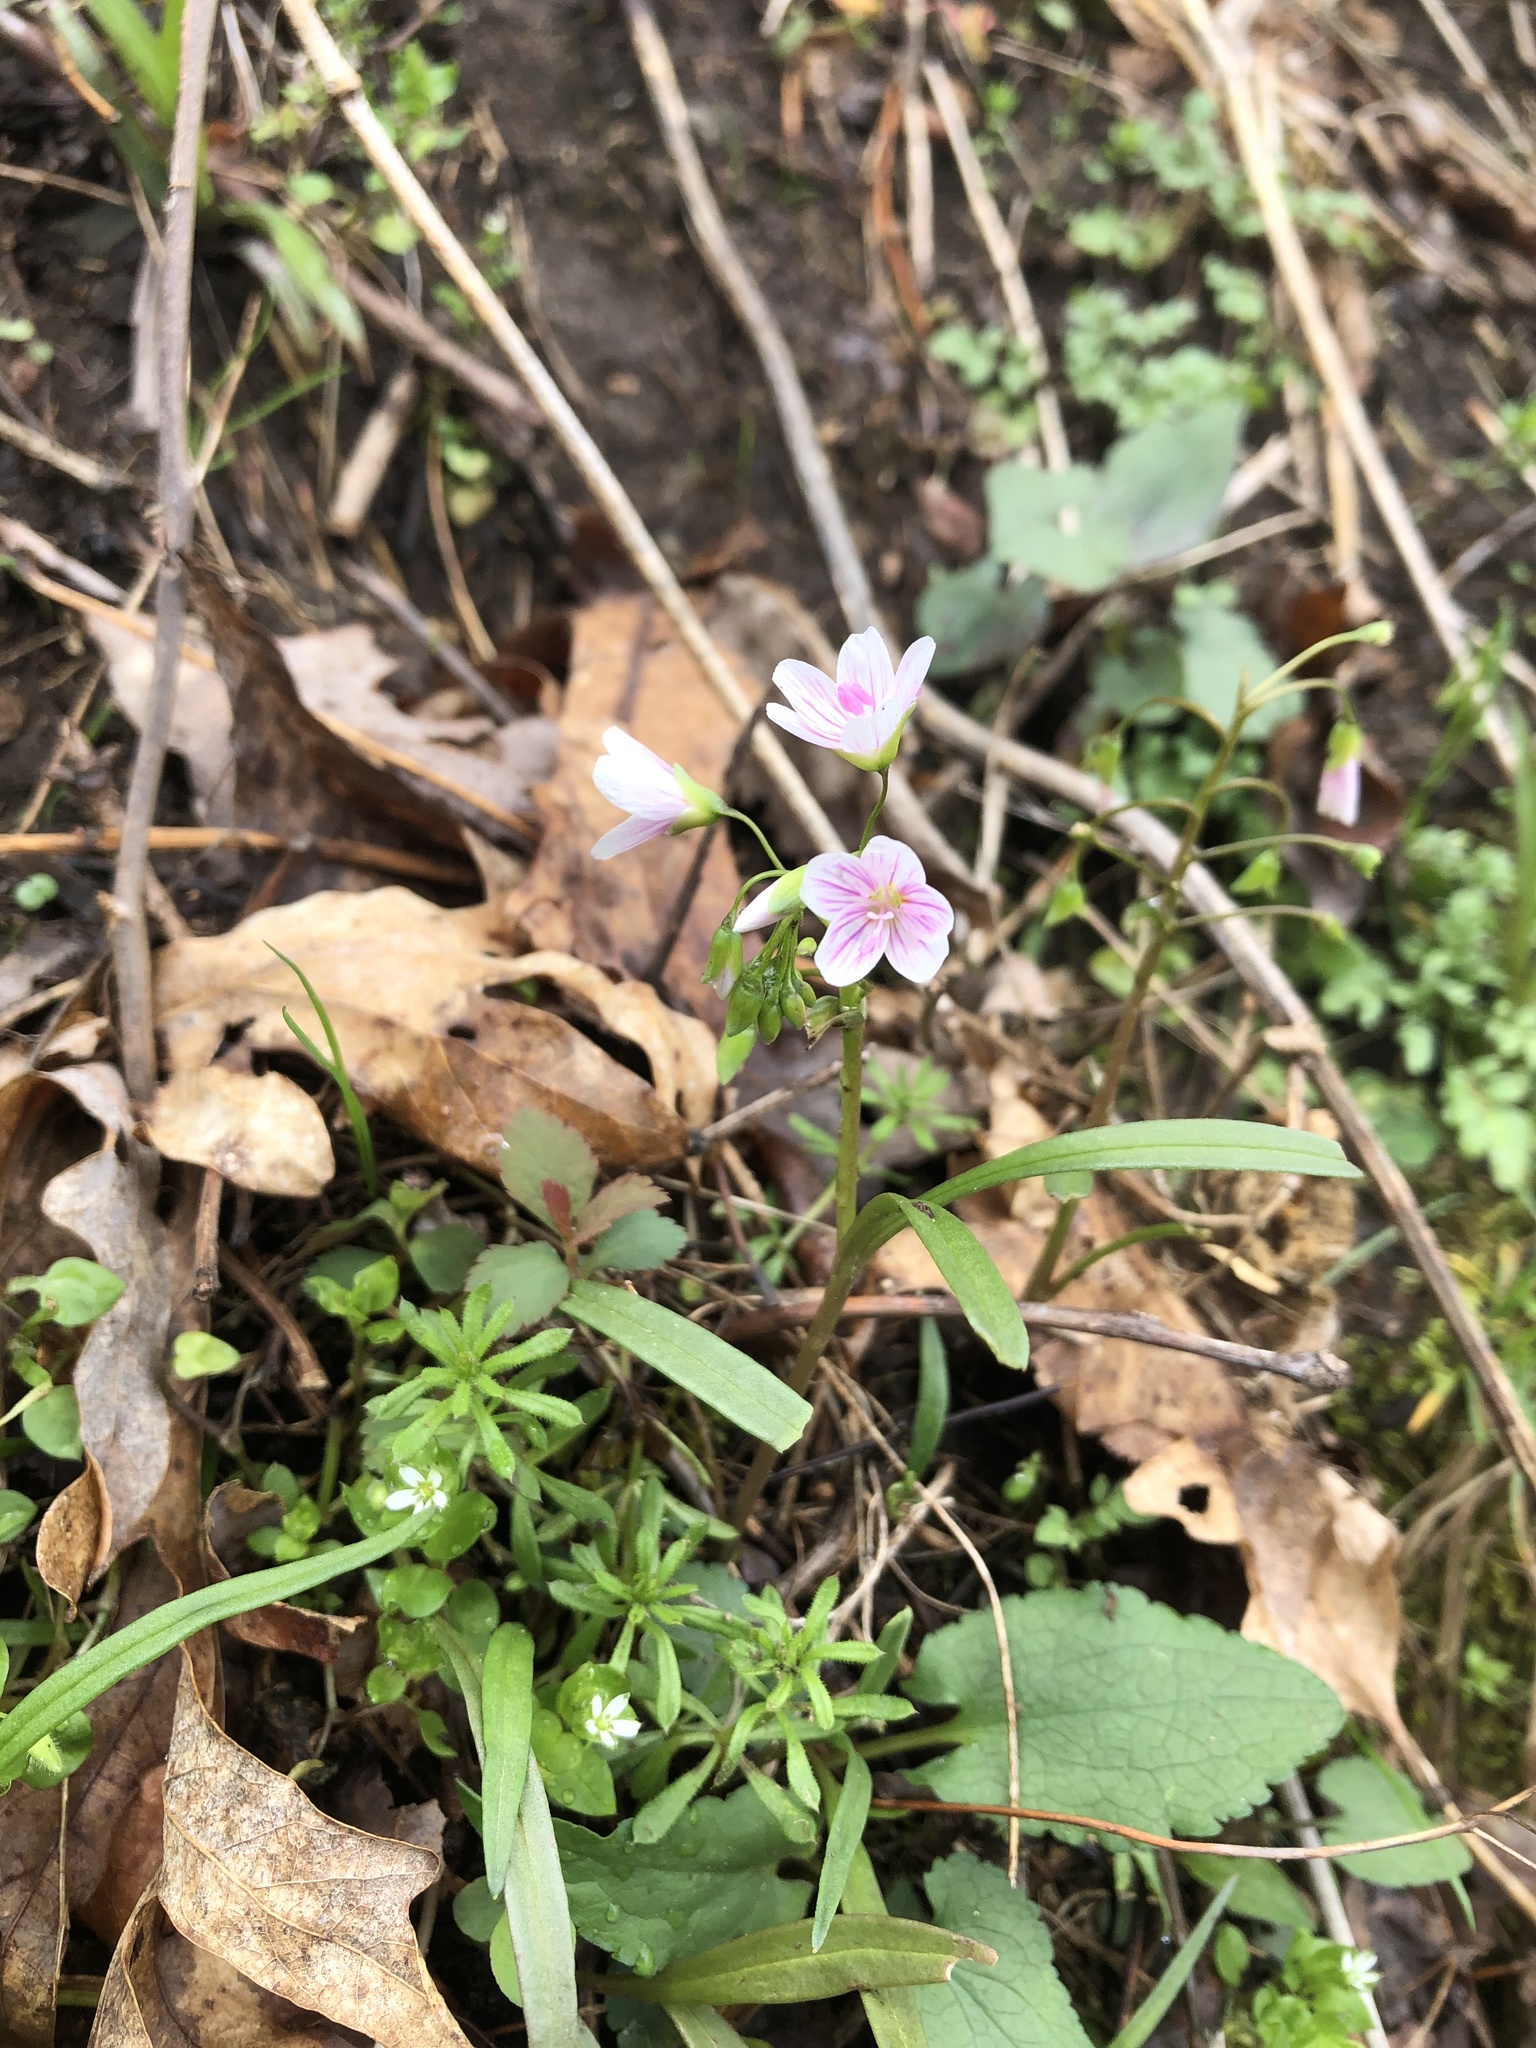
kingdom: Plantae
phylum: Tracheophyta
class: Magnoliopsida
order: Caryophyllales
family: Montiaceae
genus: Claytonia
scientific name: Claytonia virginica
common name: Virginia springbeauty
